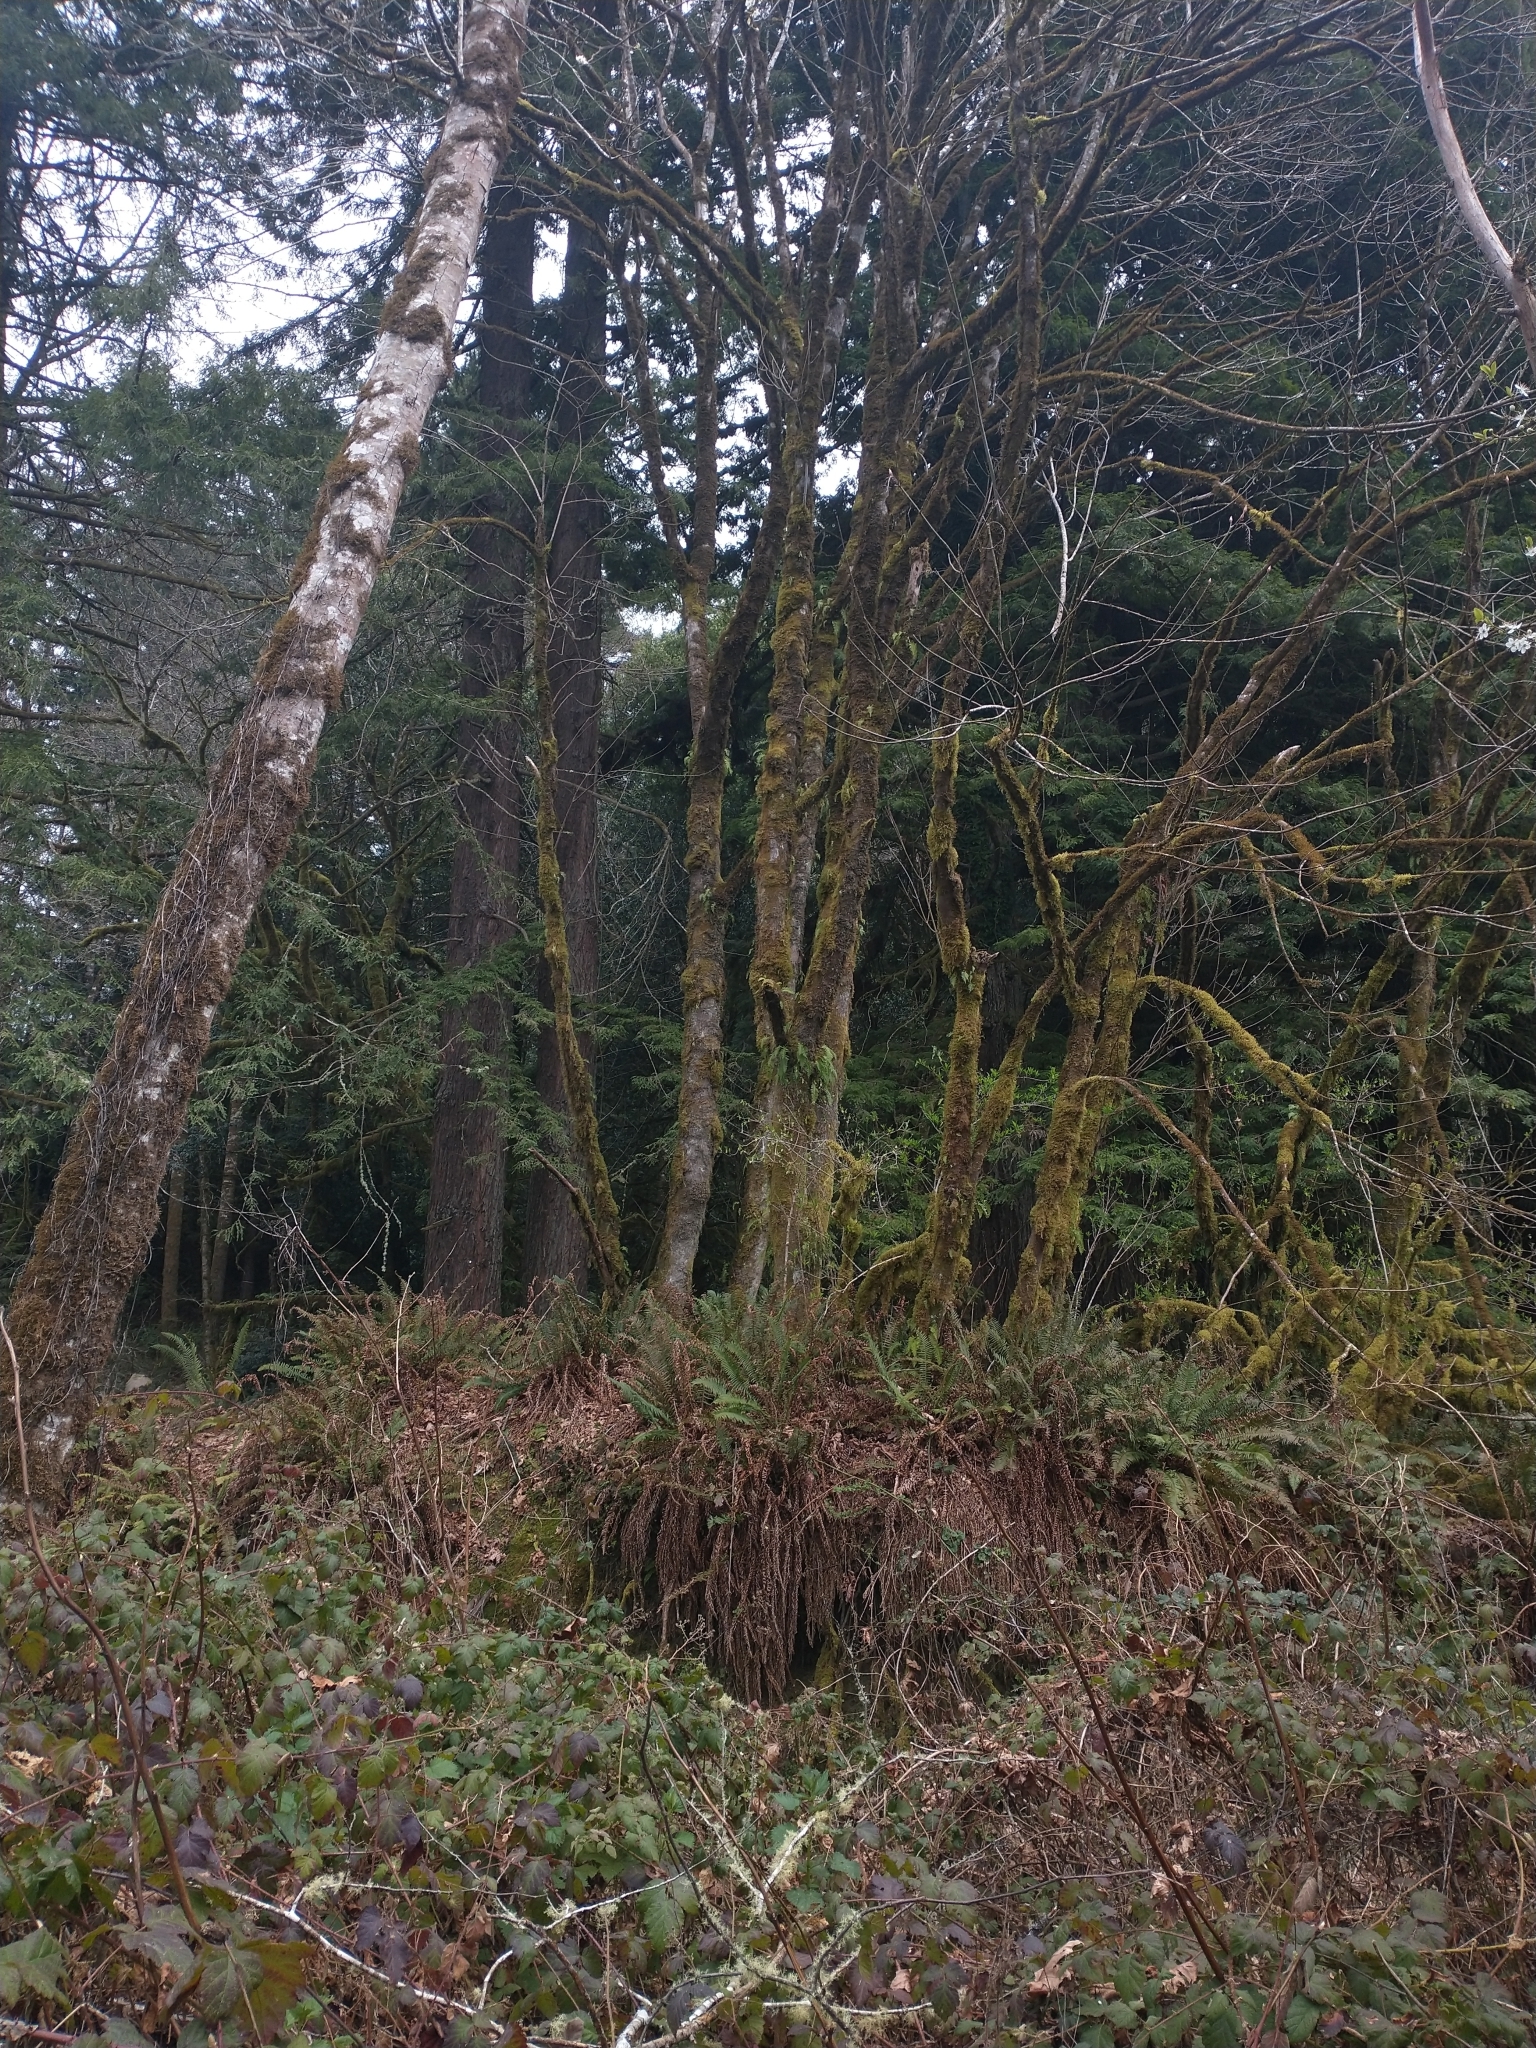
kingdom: Plantae
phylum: Tracheophyta
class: Magnoliopsida
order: Sapindales
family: Sapindaceae
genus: Acer
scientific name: Acer macrophyllum
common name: Oregon maple
